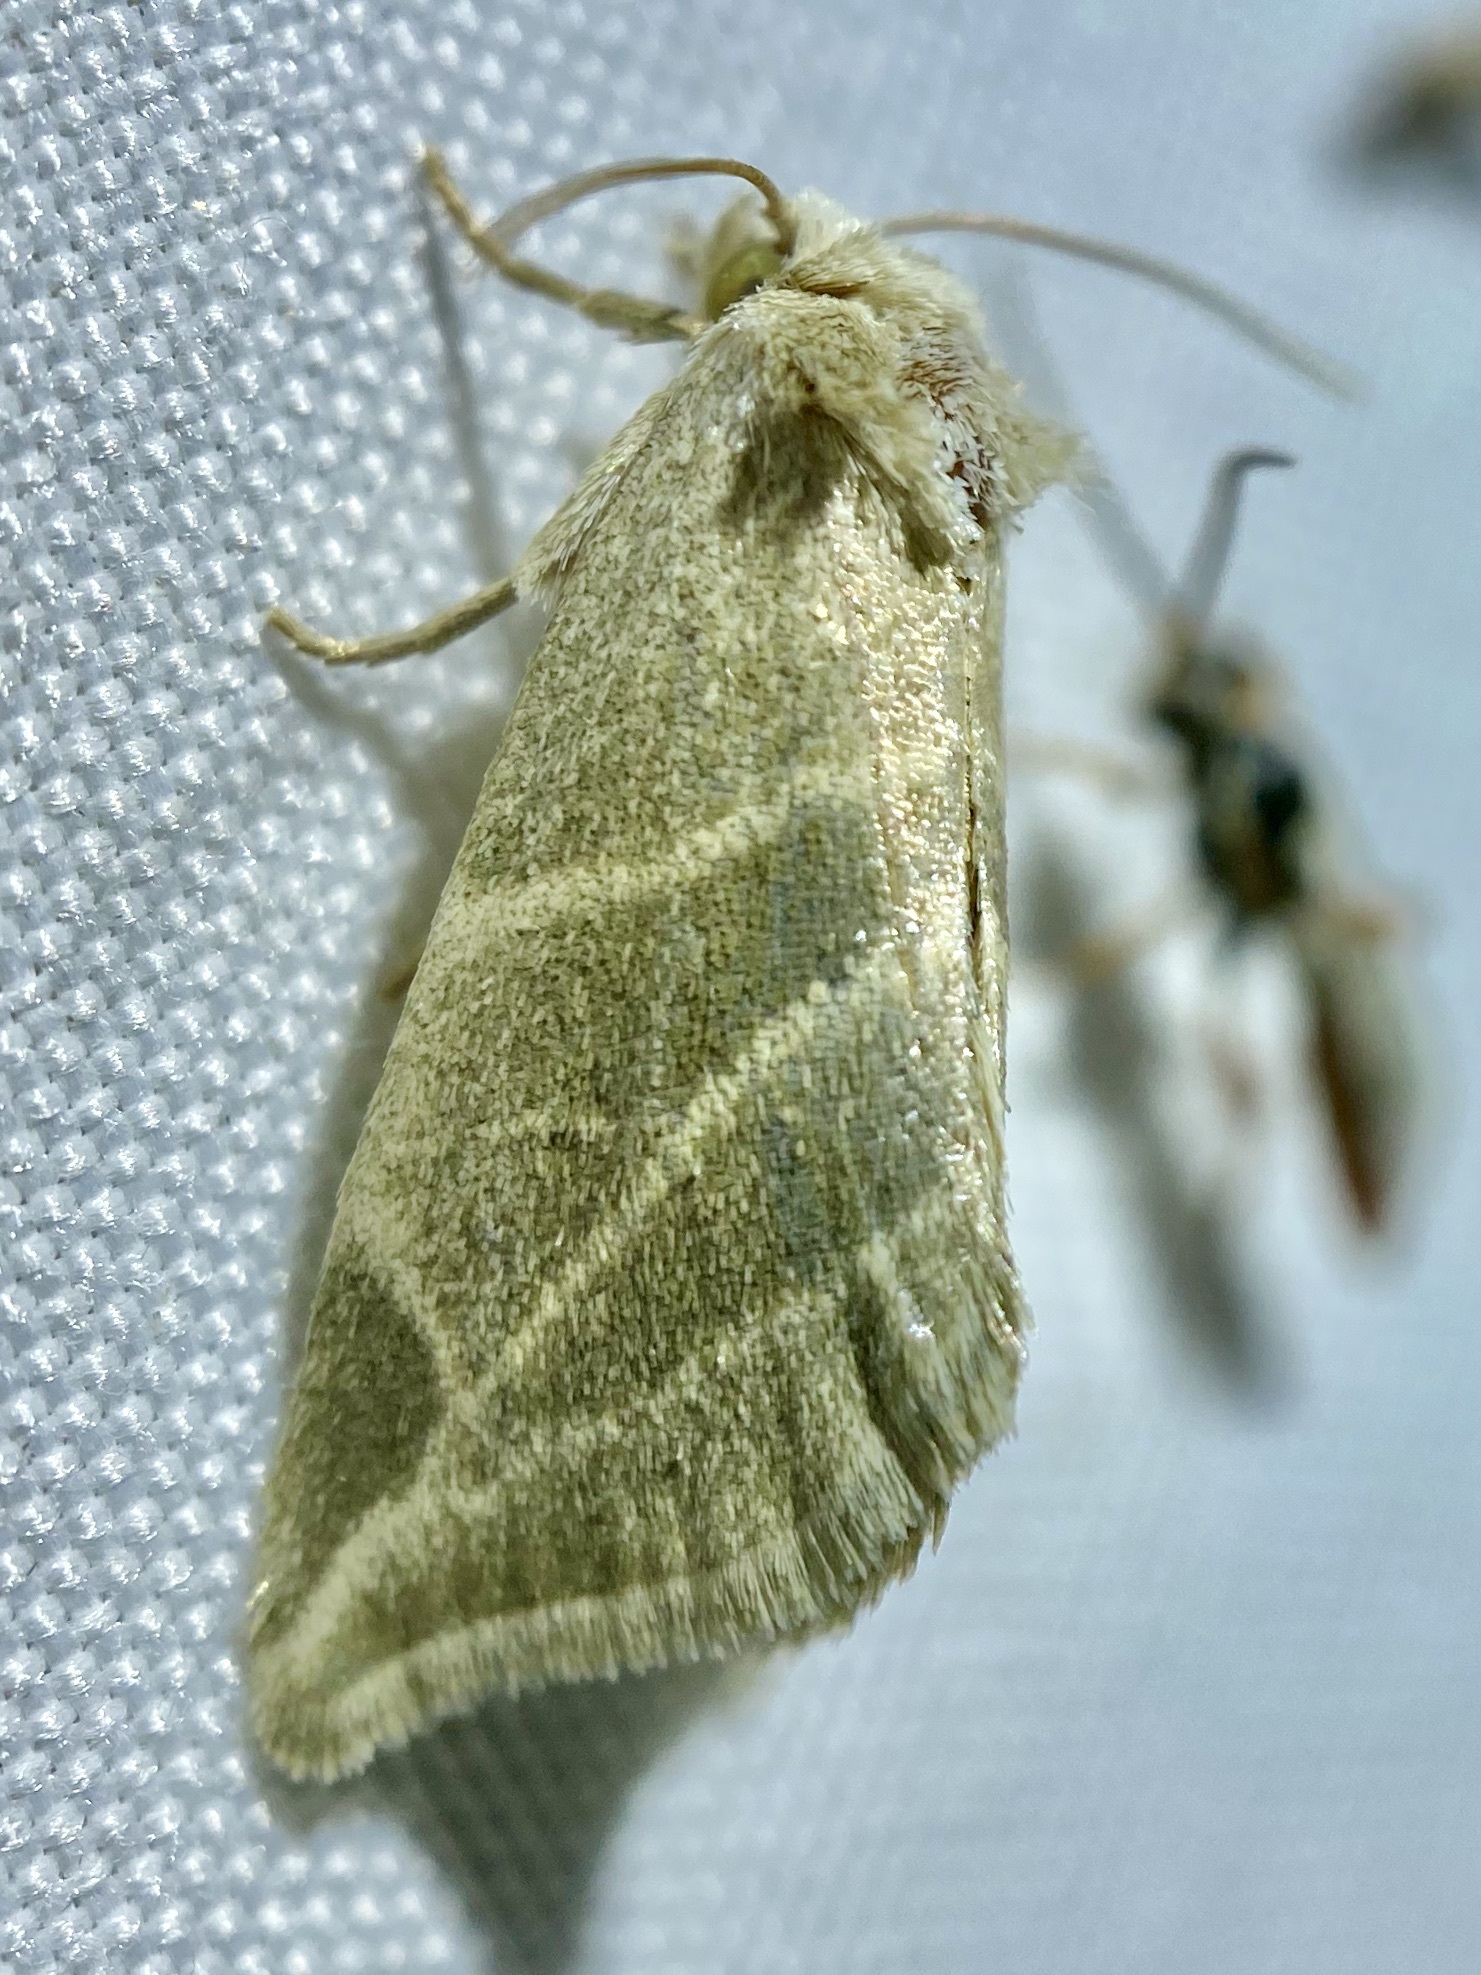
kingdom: Animalia
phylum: Arthropoda
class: Insecta
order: Lepidoptera
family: Noctuidae
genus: Plagiomimicus
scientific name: Plagiomimicus mimica
